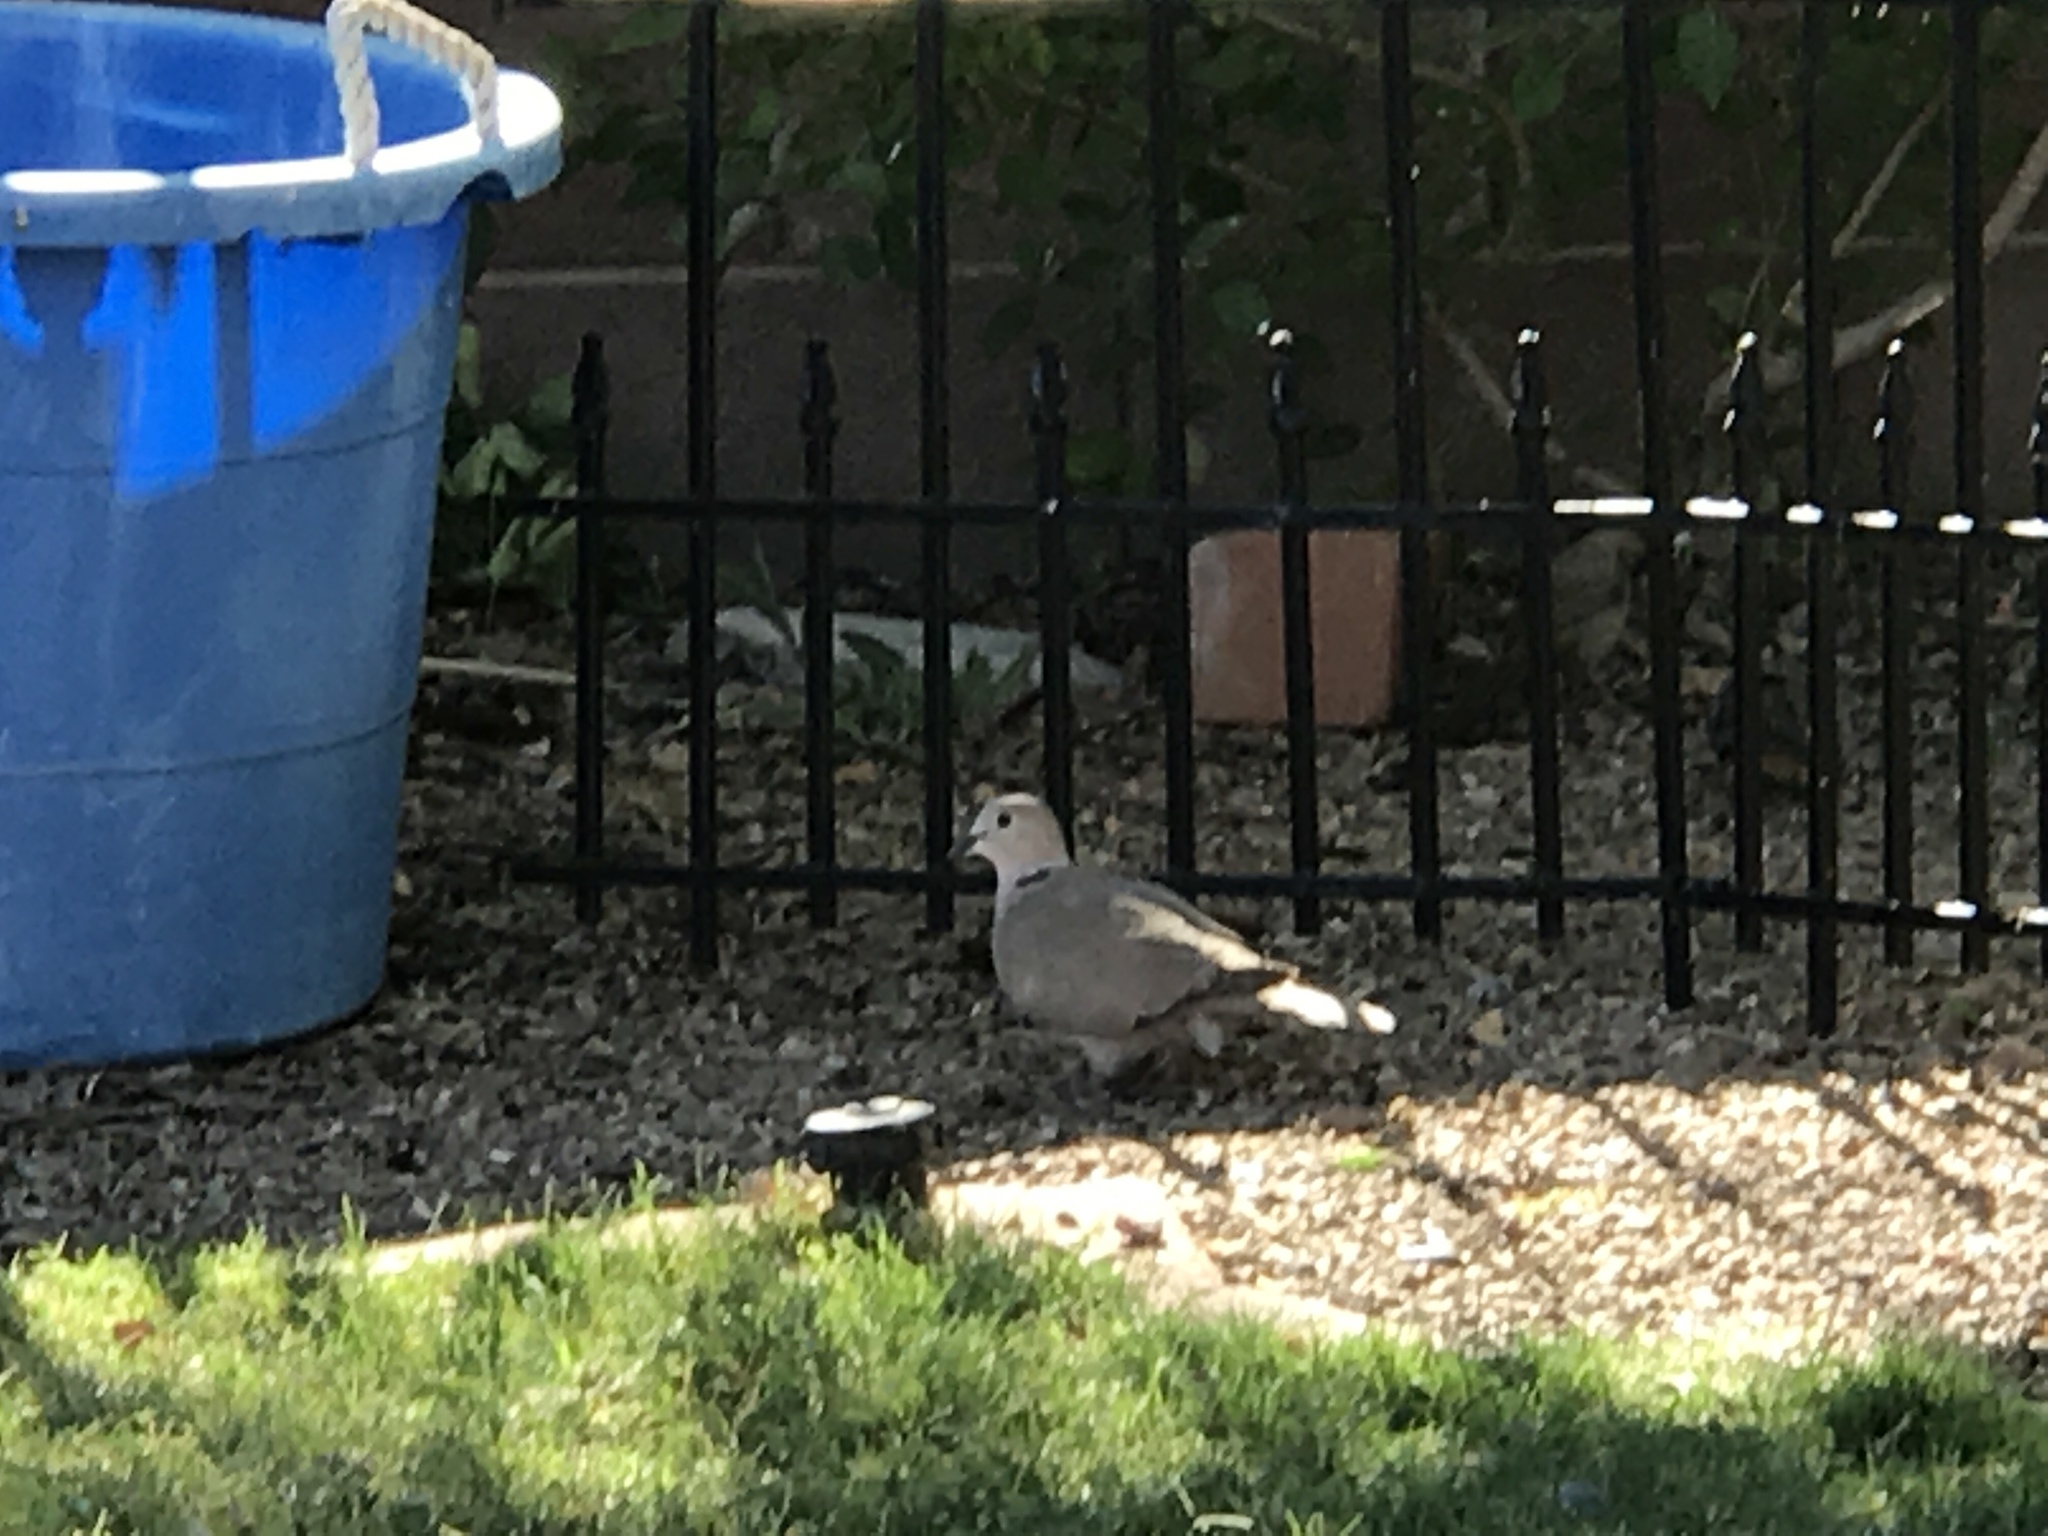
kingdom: Animalia
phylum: Chordata
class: Aves
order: Columbiformes
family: Columbidae
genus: Streptopelia
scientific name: Streptopelia decaocto
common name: Eurasian collared dove
